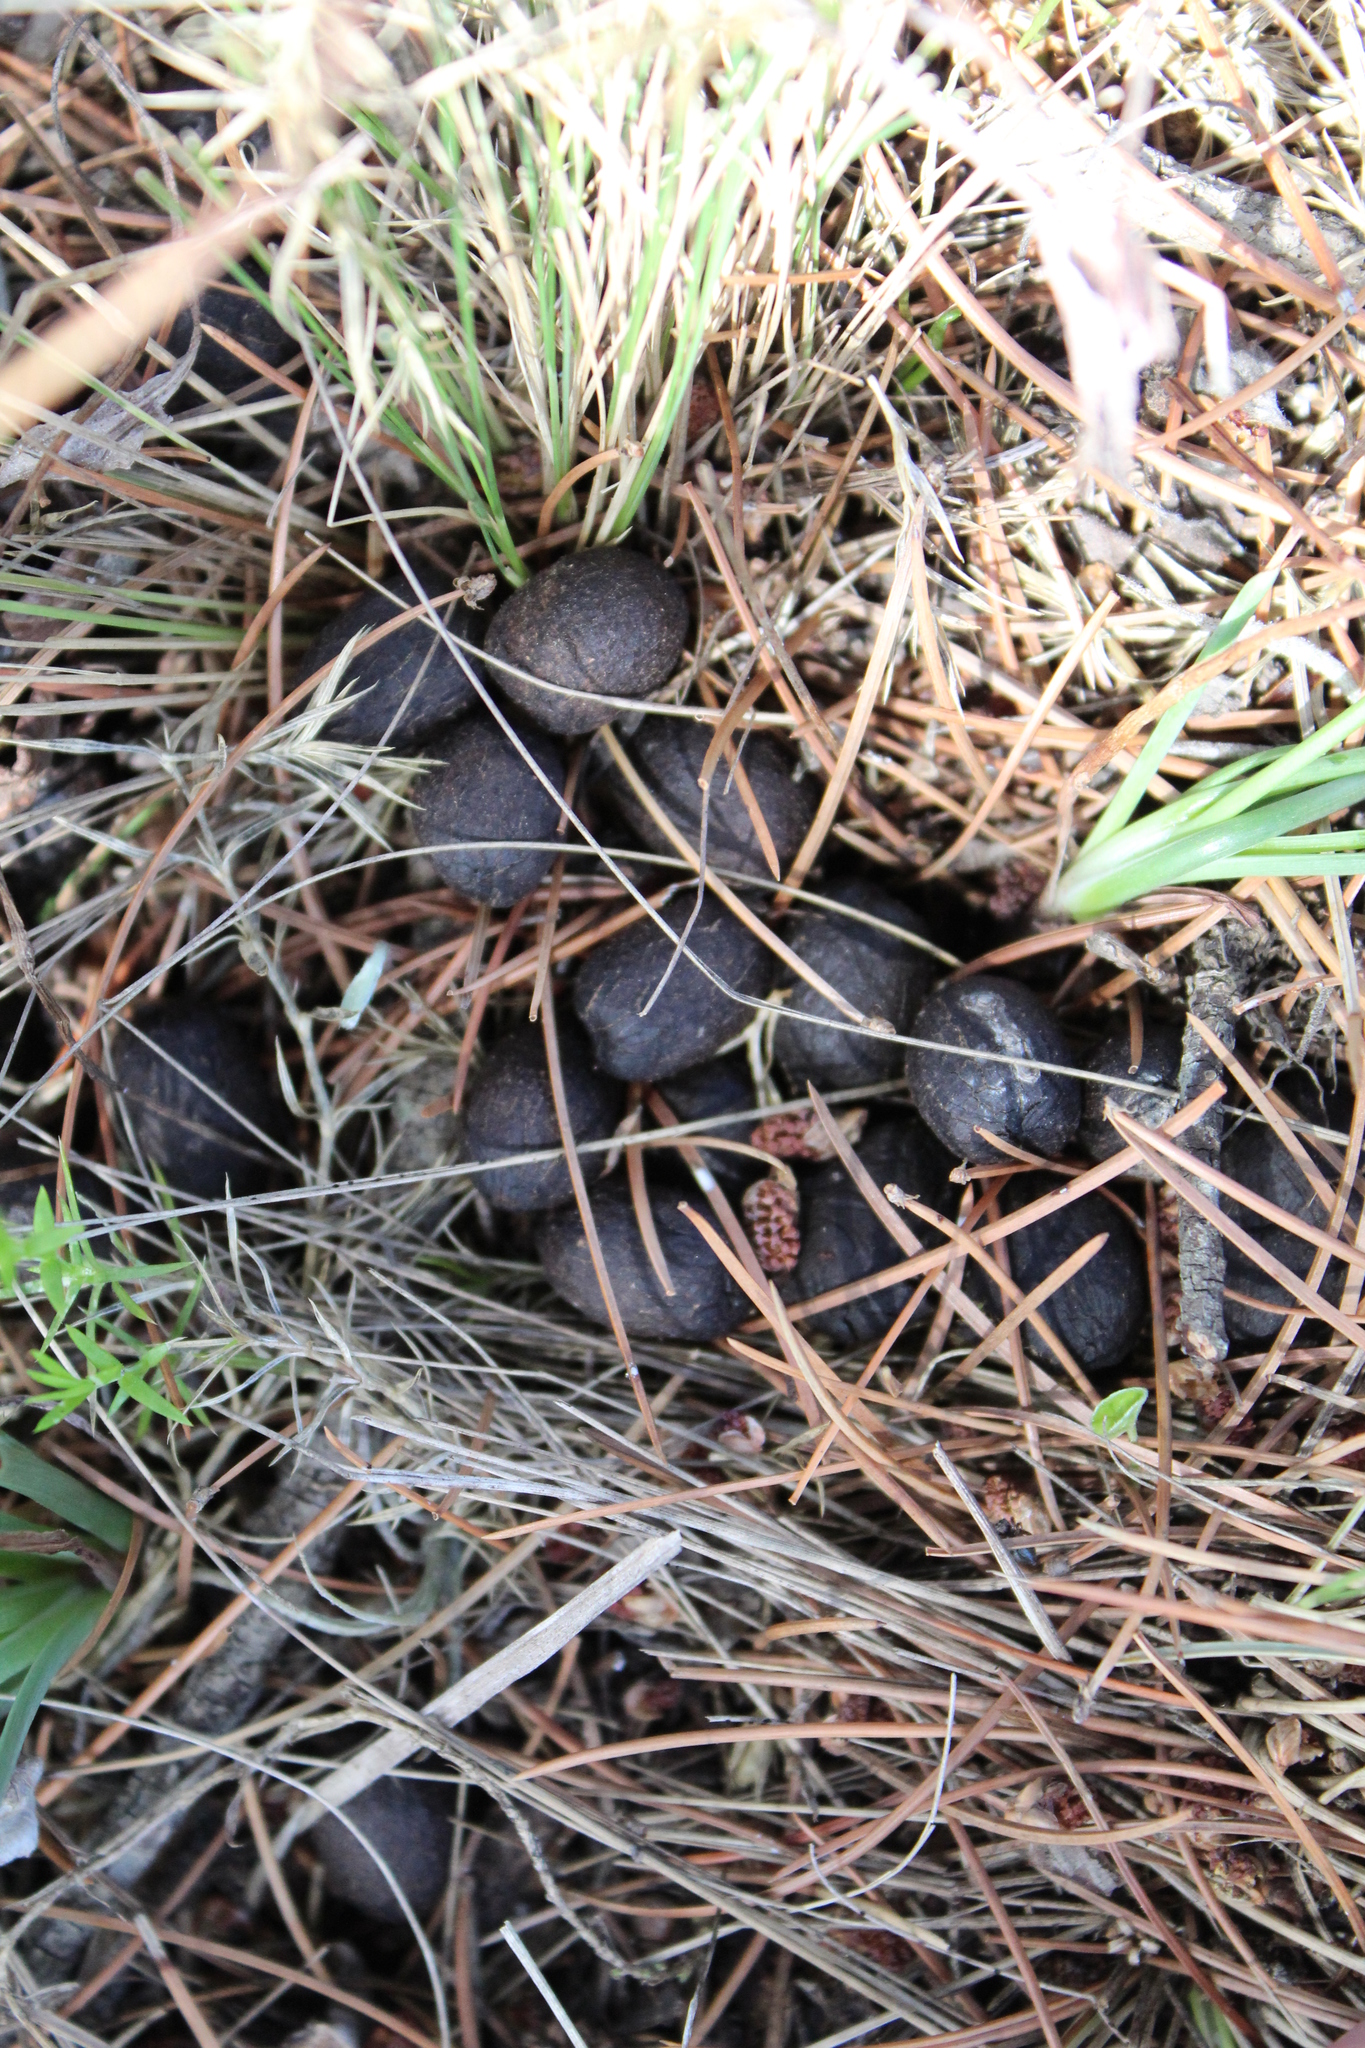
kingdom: Animalia
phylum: Chordata
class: Mammalia
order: Artiodactyla
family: Cervidae
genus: Odocoileus
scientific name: Odocoileus virginianus
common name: White-tailed deer
